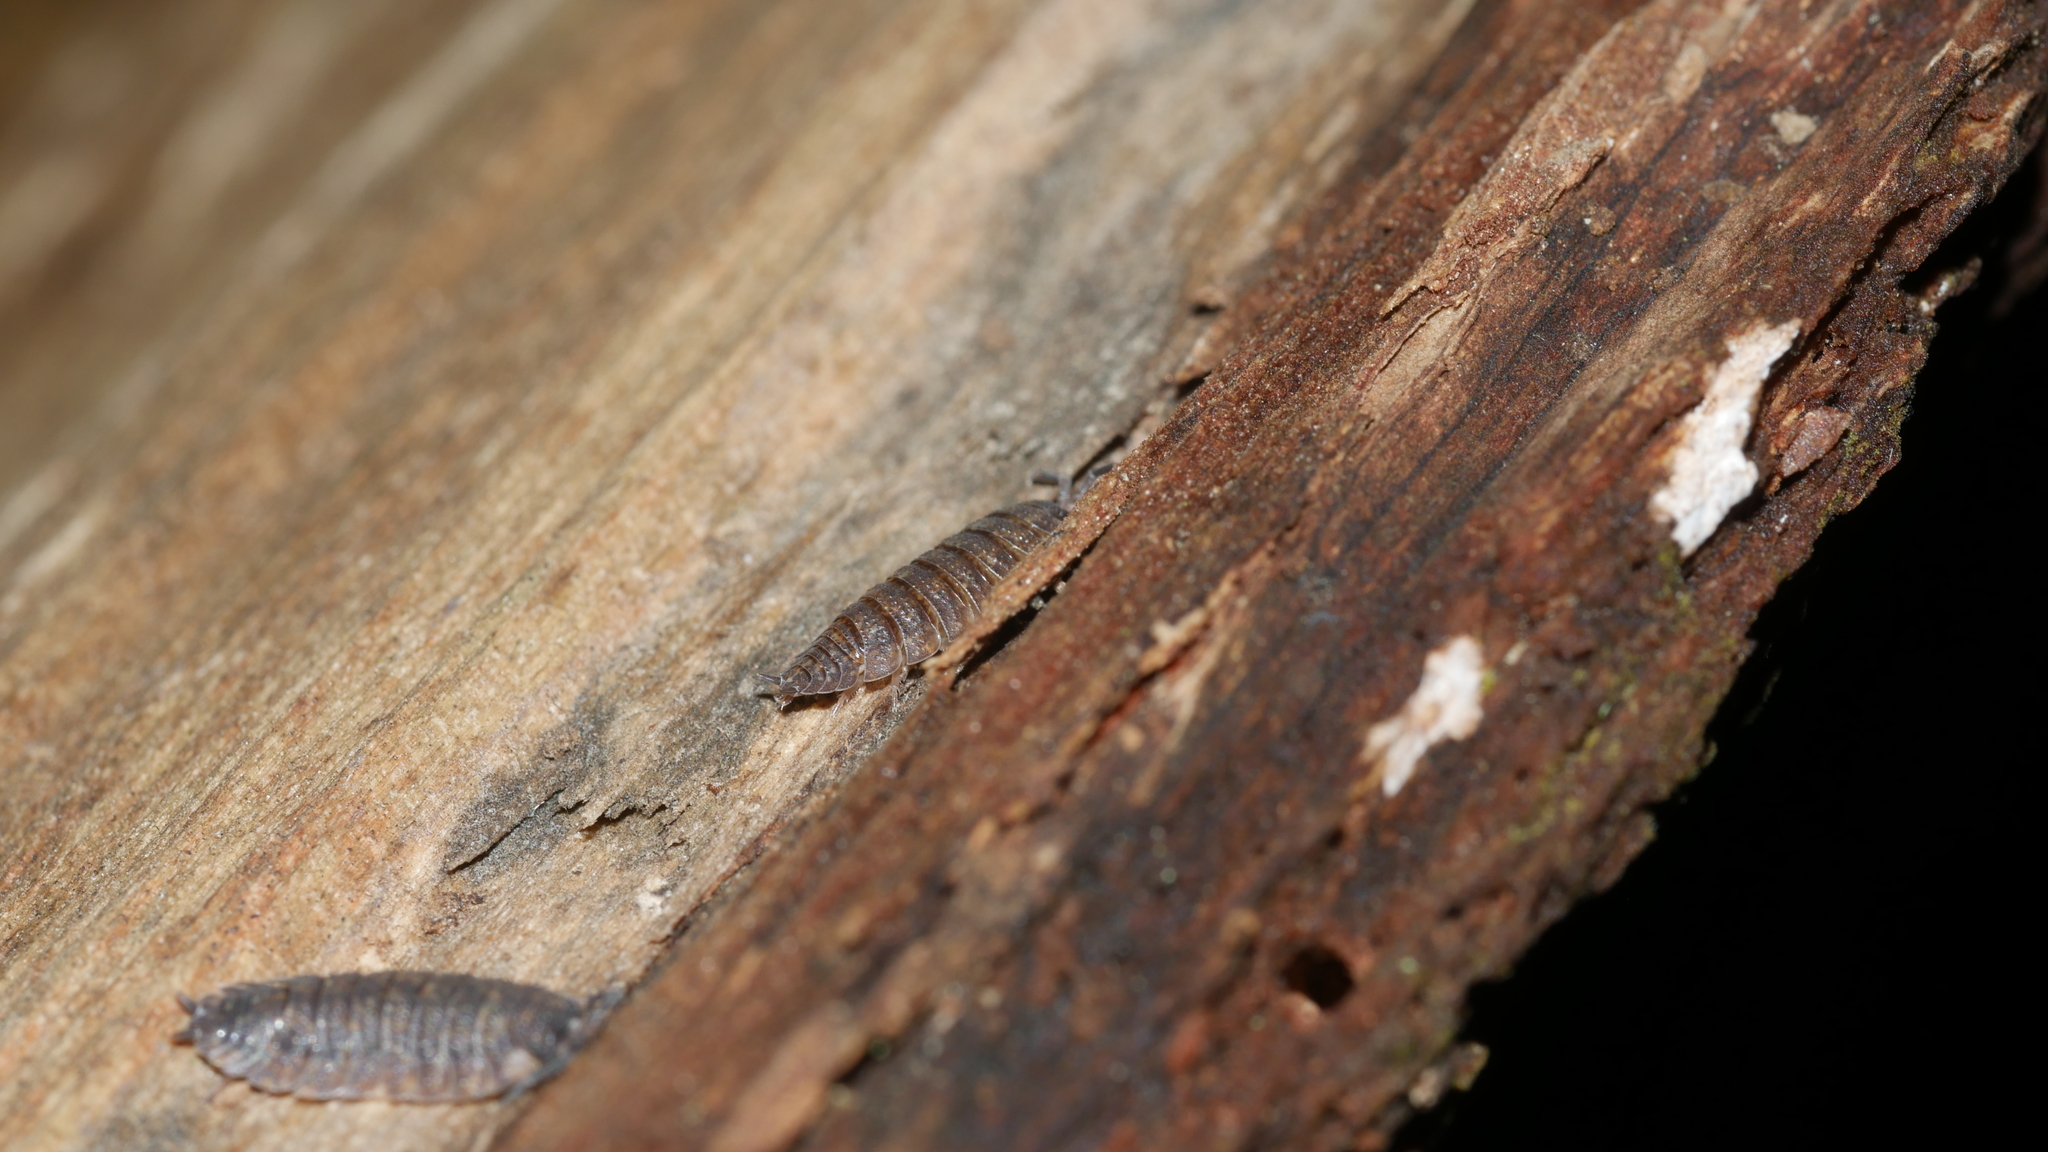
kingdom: Animalia
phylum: Arthropoda
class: Malacostraca
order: Isopoda
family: Porcellionidae
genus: Porcellio
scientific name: Porcellio scaber
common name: Common rough woodlouse
